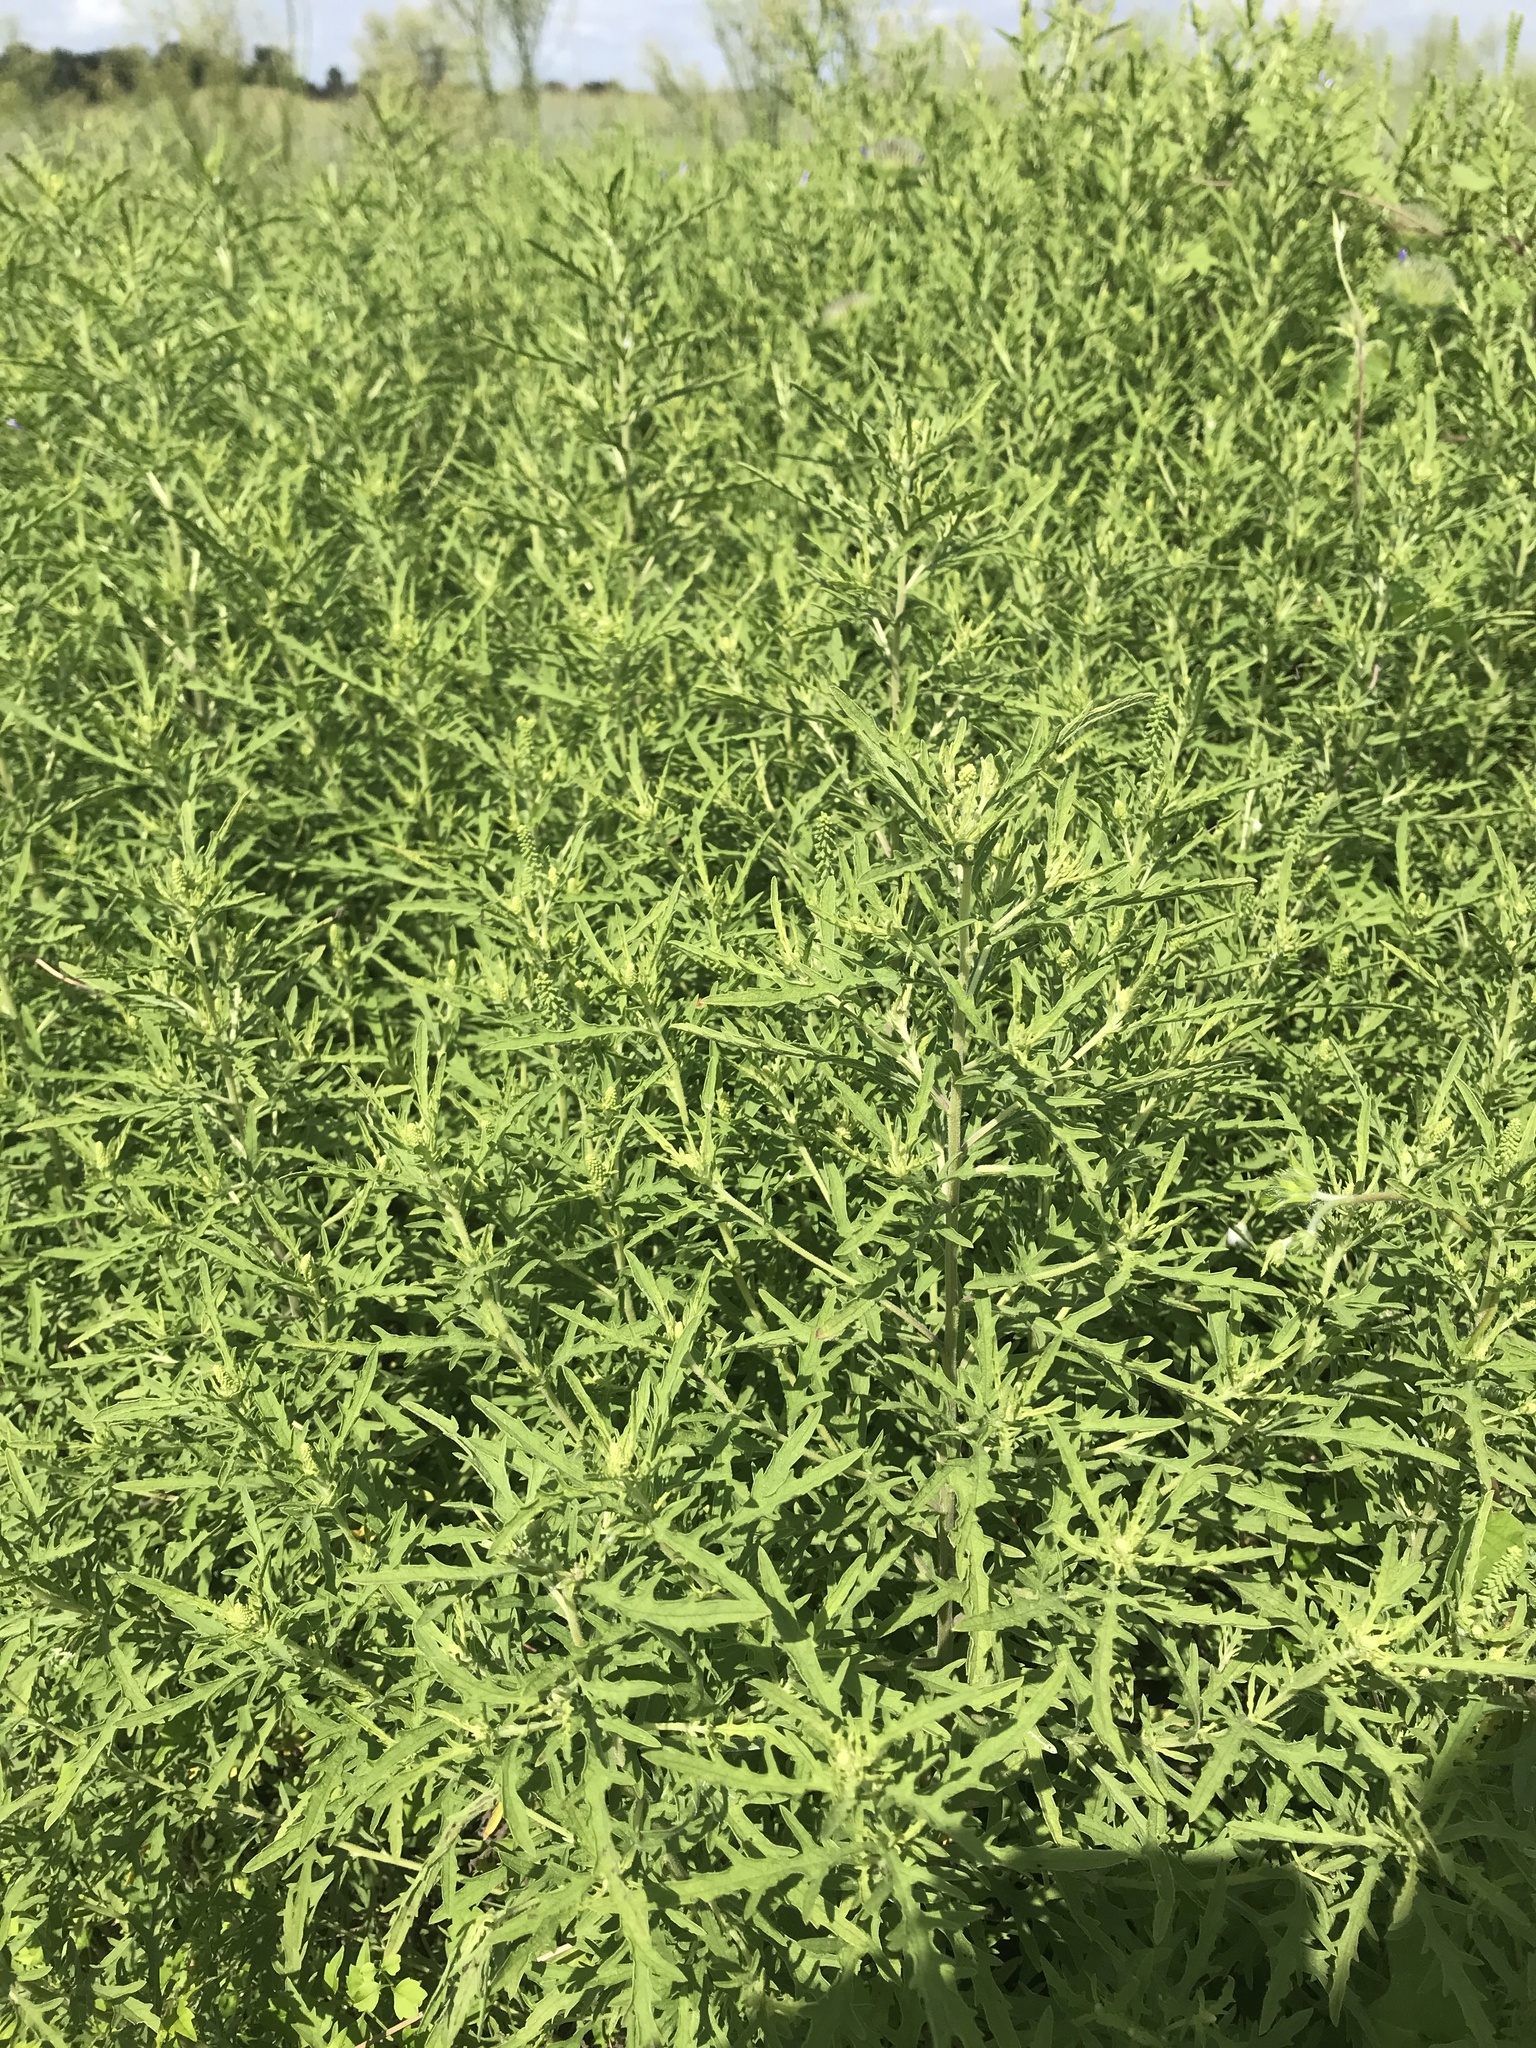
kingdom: Plantae
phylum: Tracheophyta
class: Magnoliopsida
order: Asterales
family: Asteraceae
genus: Ambrosia
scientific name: Ambrosia psilostachya
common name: Perennial ragweed
